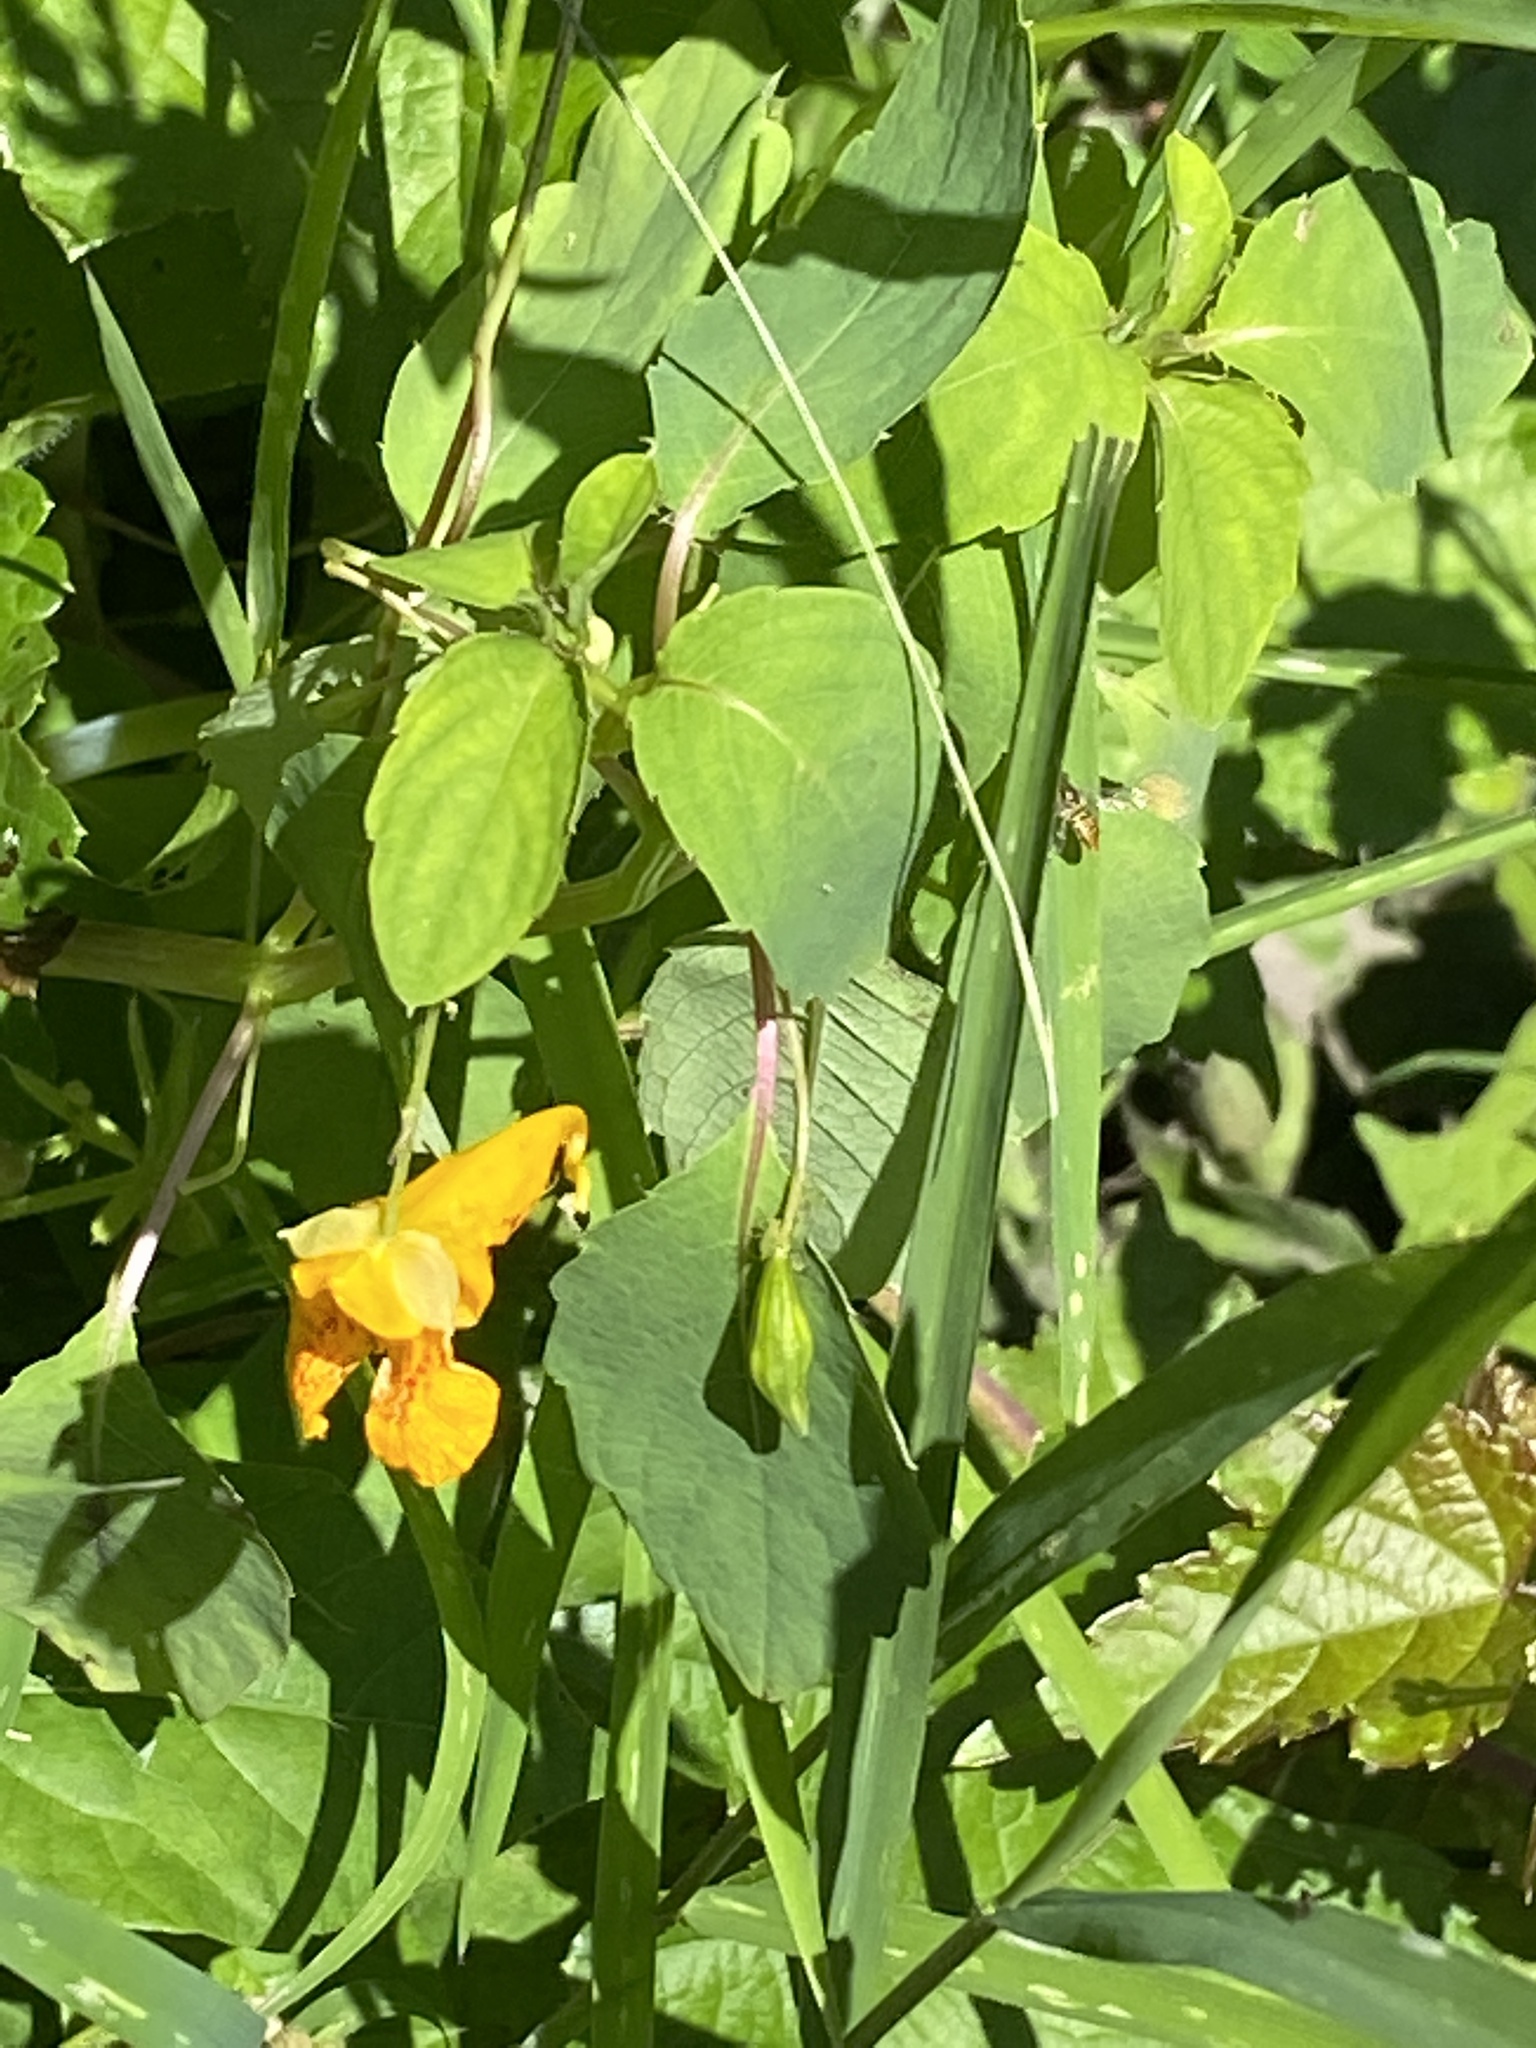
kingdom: Plantae
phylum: Tracheophyta
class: Magnoliopsida
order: Ericales
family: Balsaminaceae
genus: Impatiens
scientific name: Impatiens capensis
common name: Orange balsam
